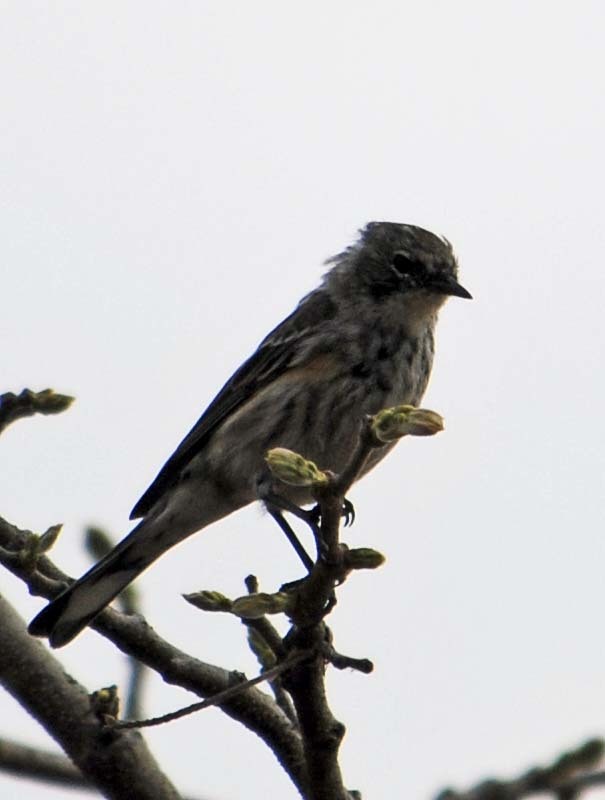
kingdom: Animalia
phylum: Chordata
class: Aves
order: Passeriformes
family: Parulidae
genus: Setophaga
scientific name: Setophaga auduboni
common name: Audubon's warbler
